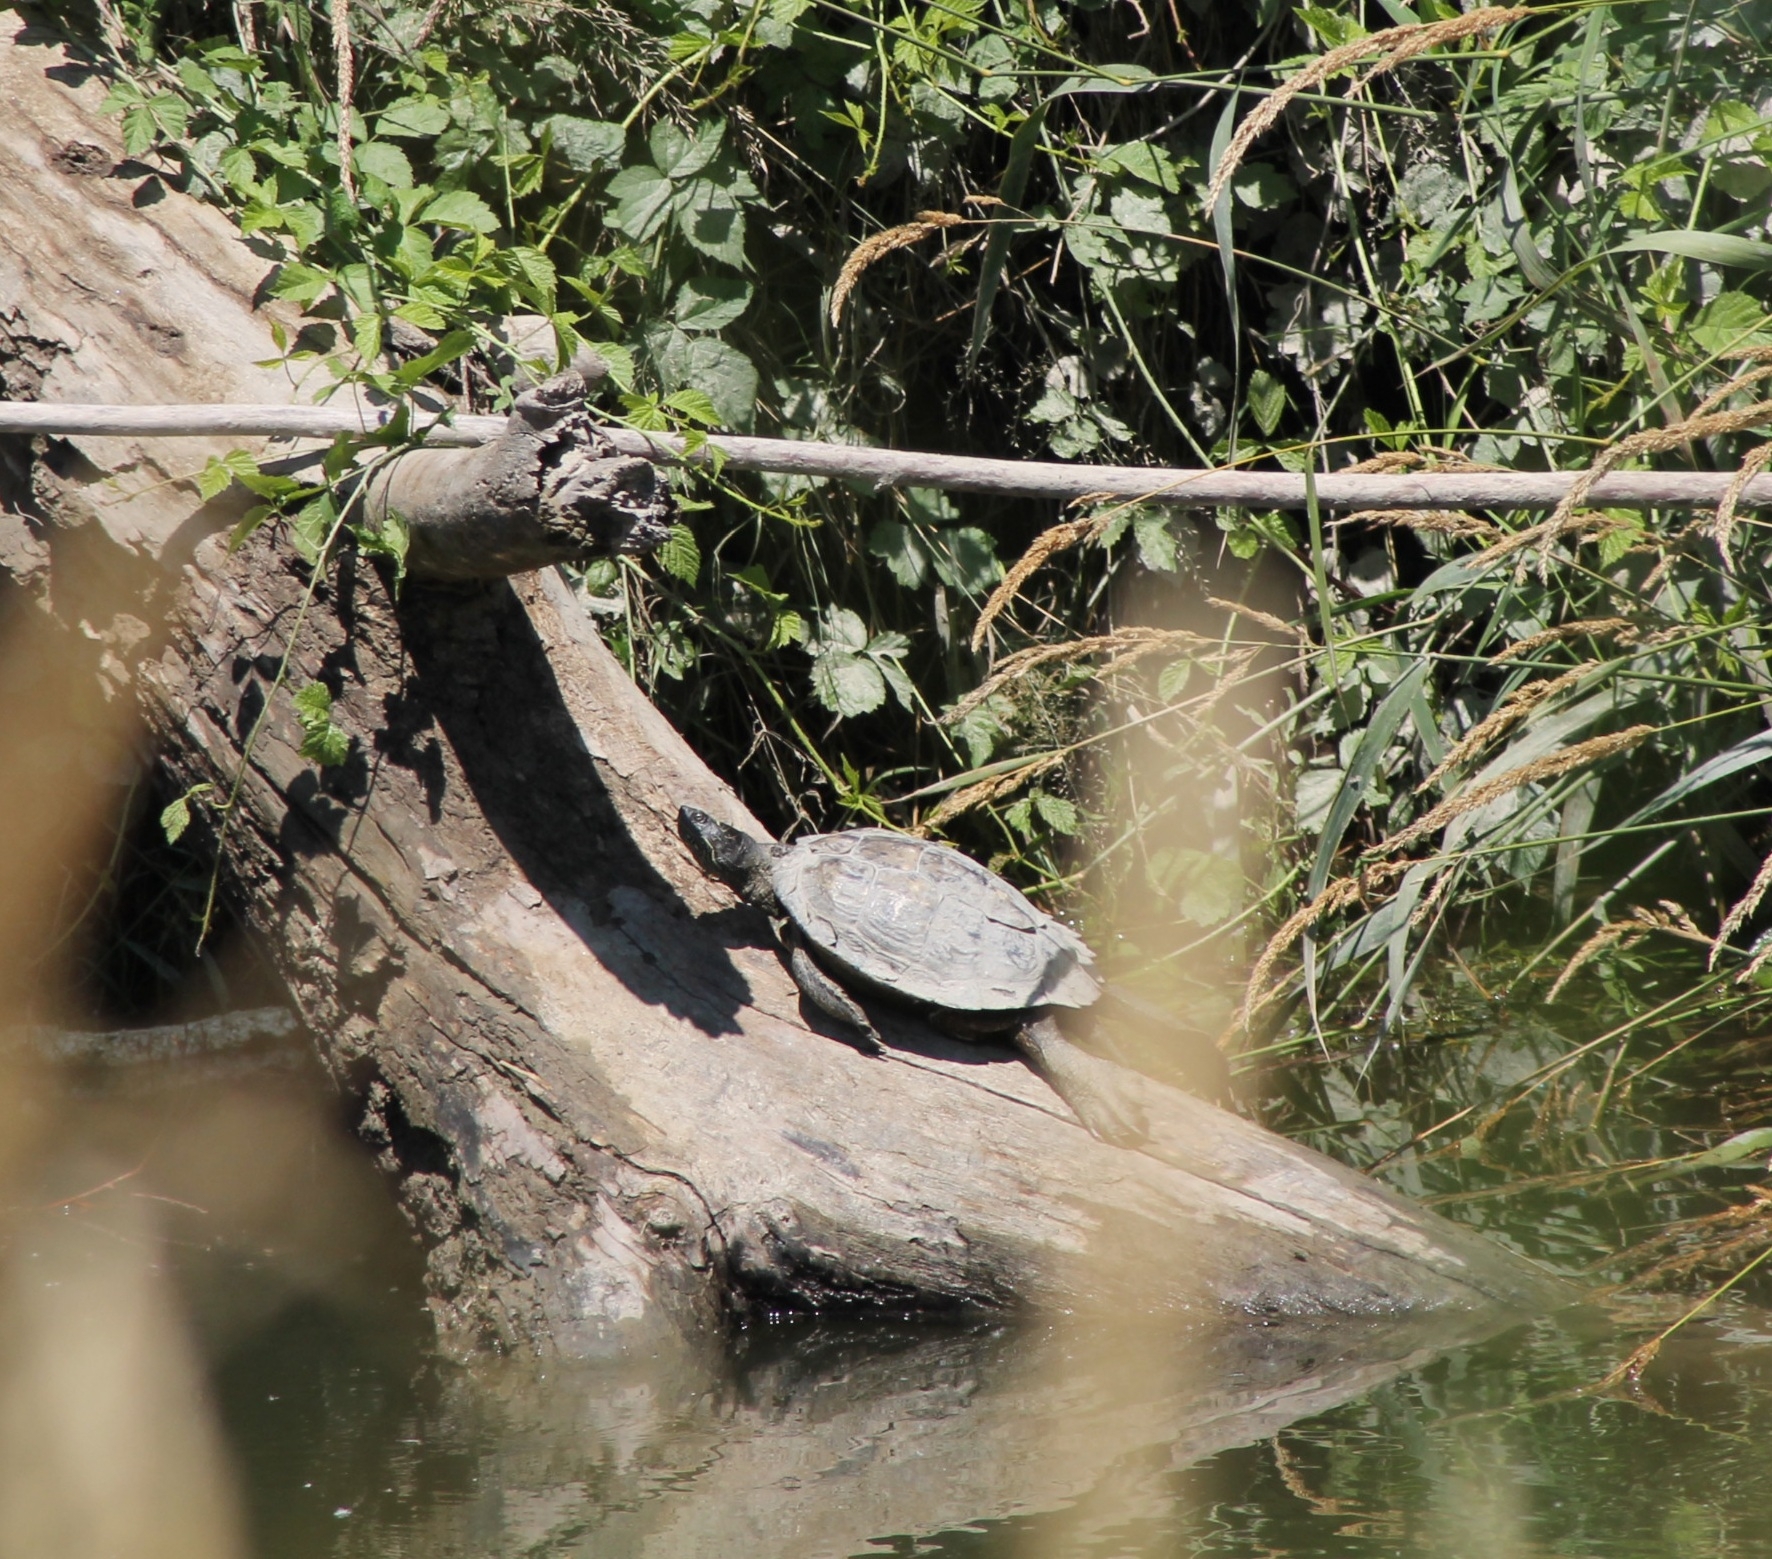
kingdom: Animalia
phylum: Chordata
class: Testudines
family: Emydidae
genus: Graptemys
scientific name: Graptemys pseudogeographica
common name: False map turtle
